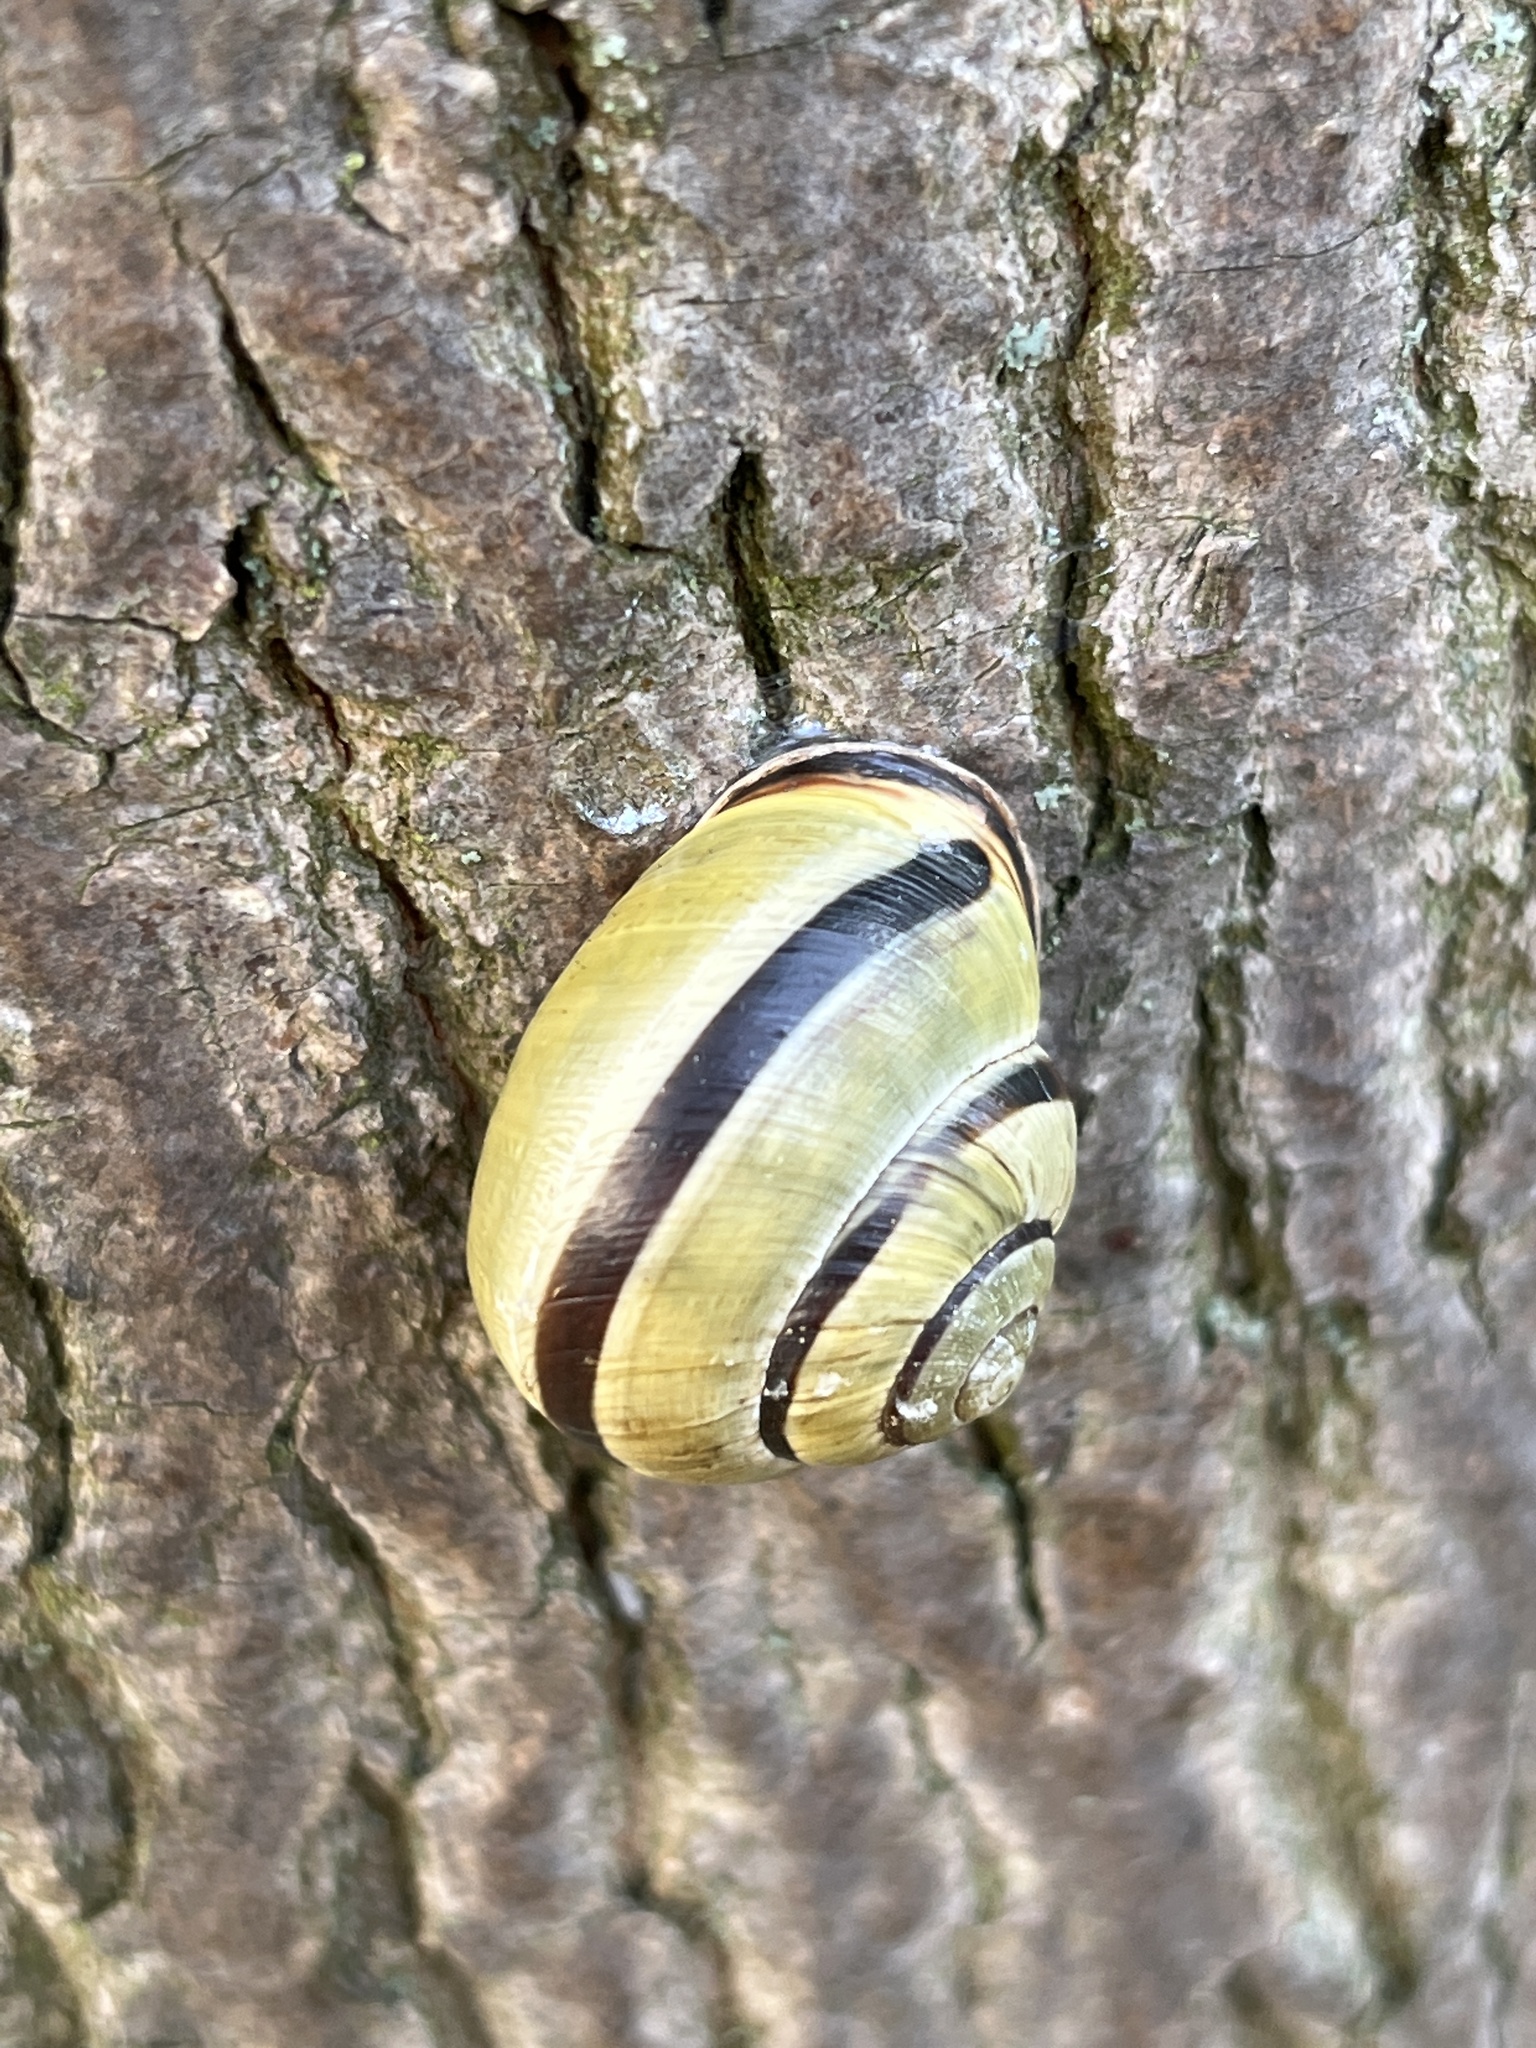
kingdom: Animalia
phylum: Mollusca
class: Gastropoda
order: Stylommatophora
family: Helicidae
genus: Cepaea
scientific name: Cepaea nemoralis
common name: Grovesnail
